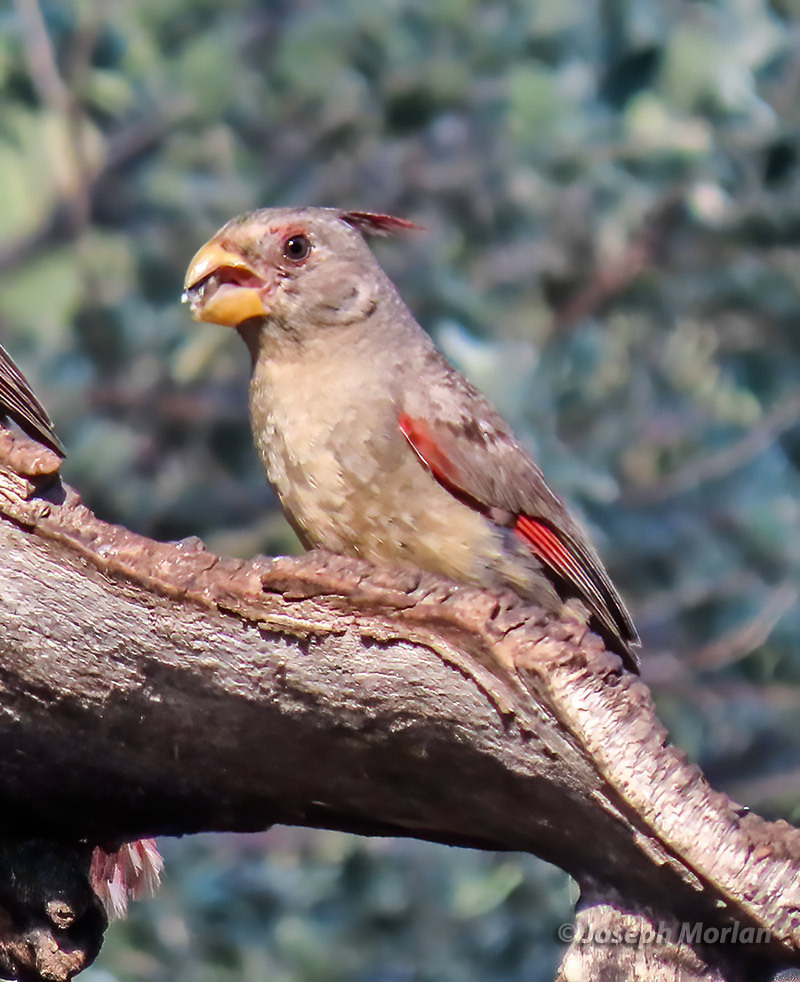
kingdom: Animalia
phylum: Chordata
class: Aves
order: Passeriformes
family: Cardinalidae
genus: Cardinalis
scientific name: Cardinalis sinuatus
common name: Pyrrhuloxia
